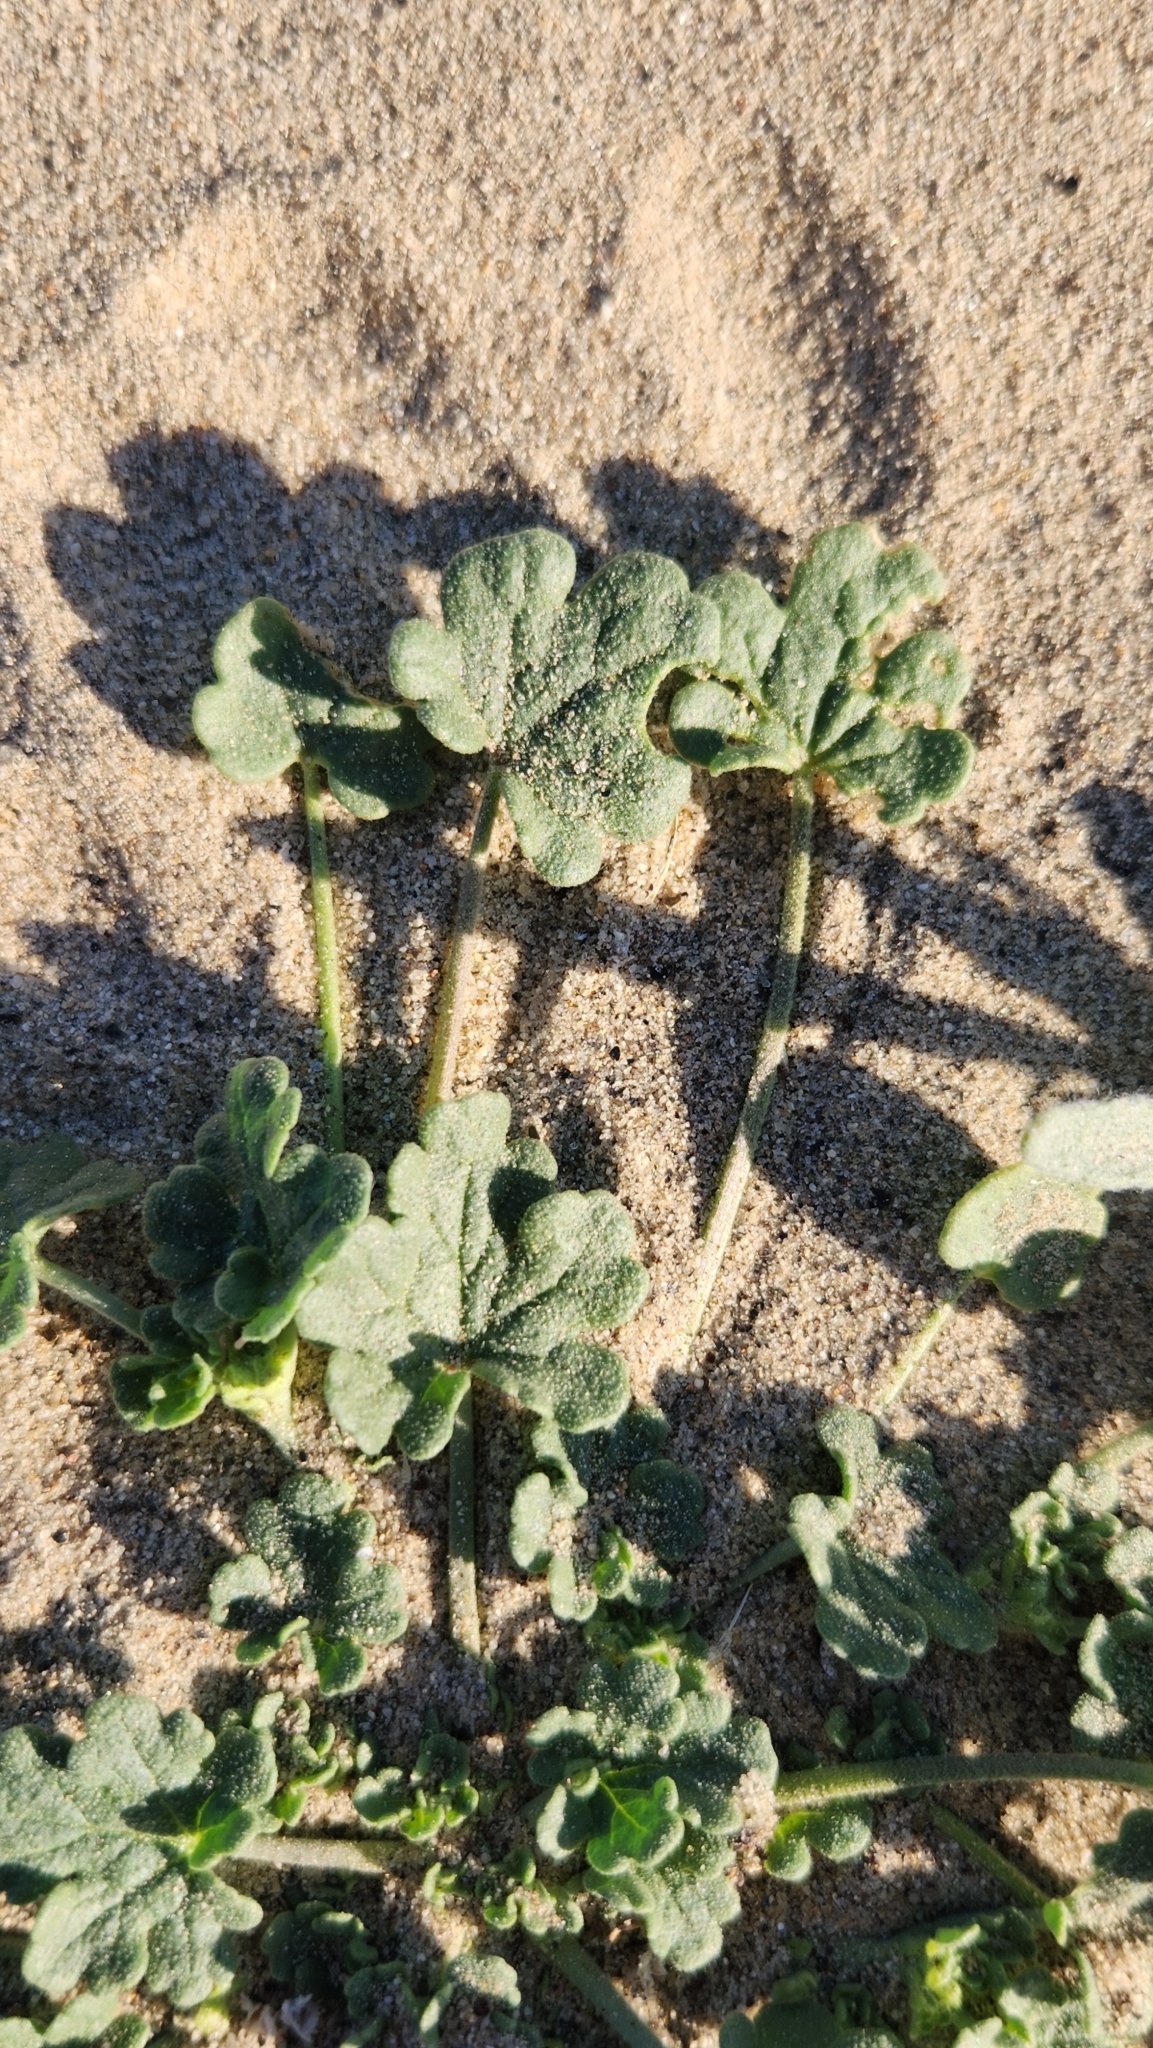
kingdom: Plantae
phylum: Tracheophyta
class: Magnoliopsida
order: Malvales
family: Malvaceae
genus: Eremalche
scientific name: Eremalche exilis
